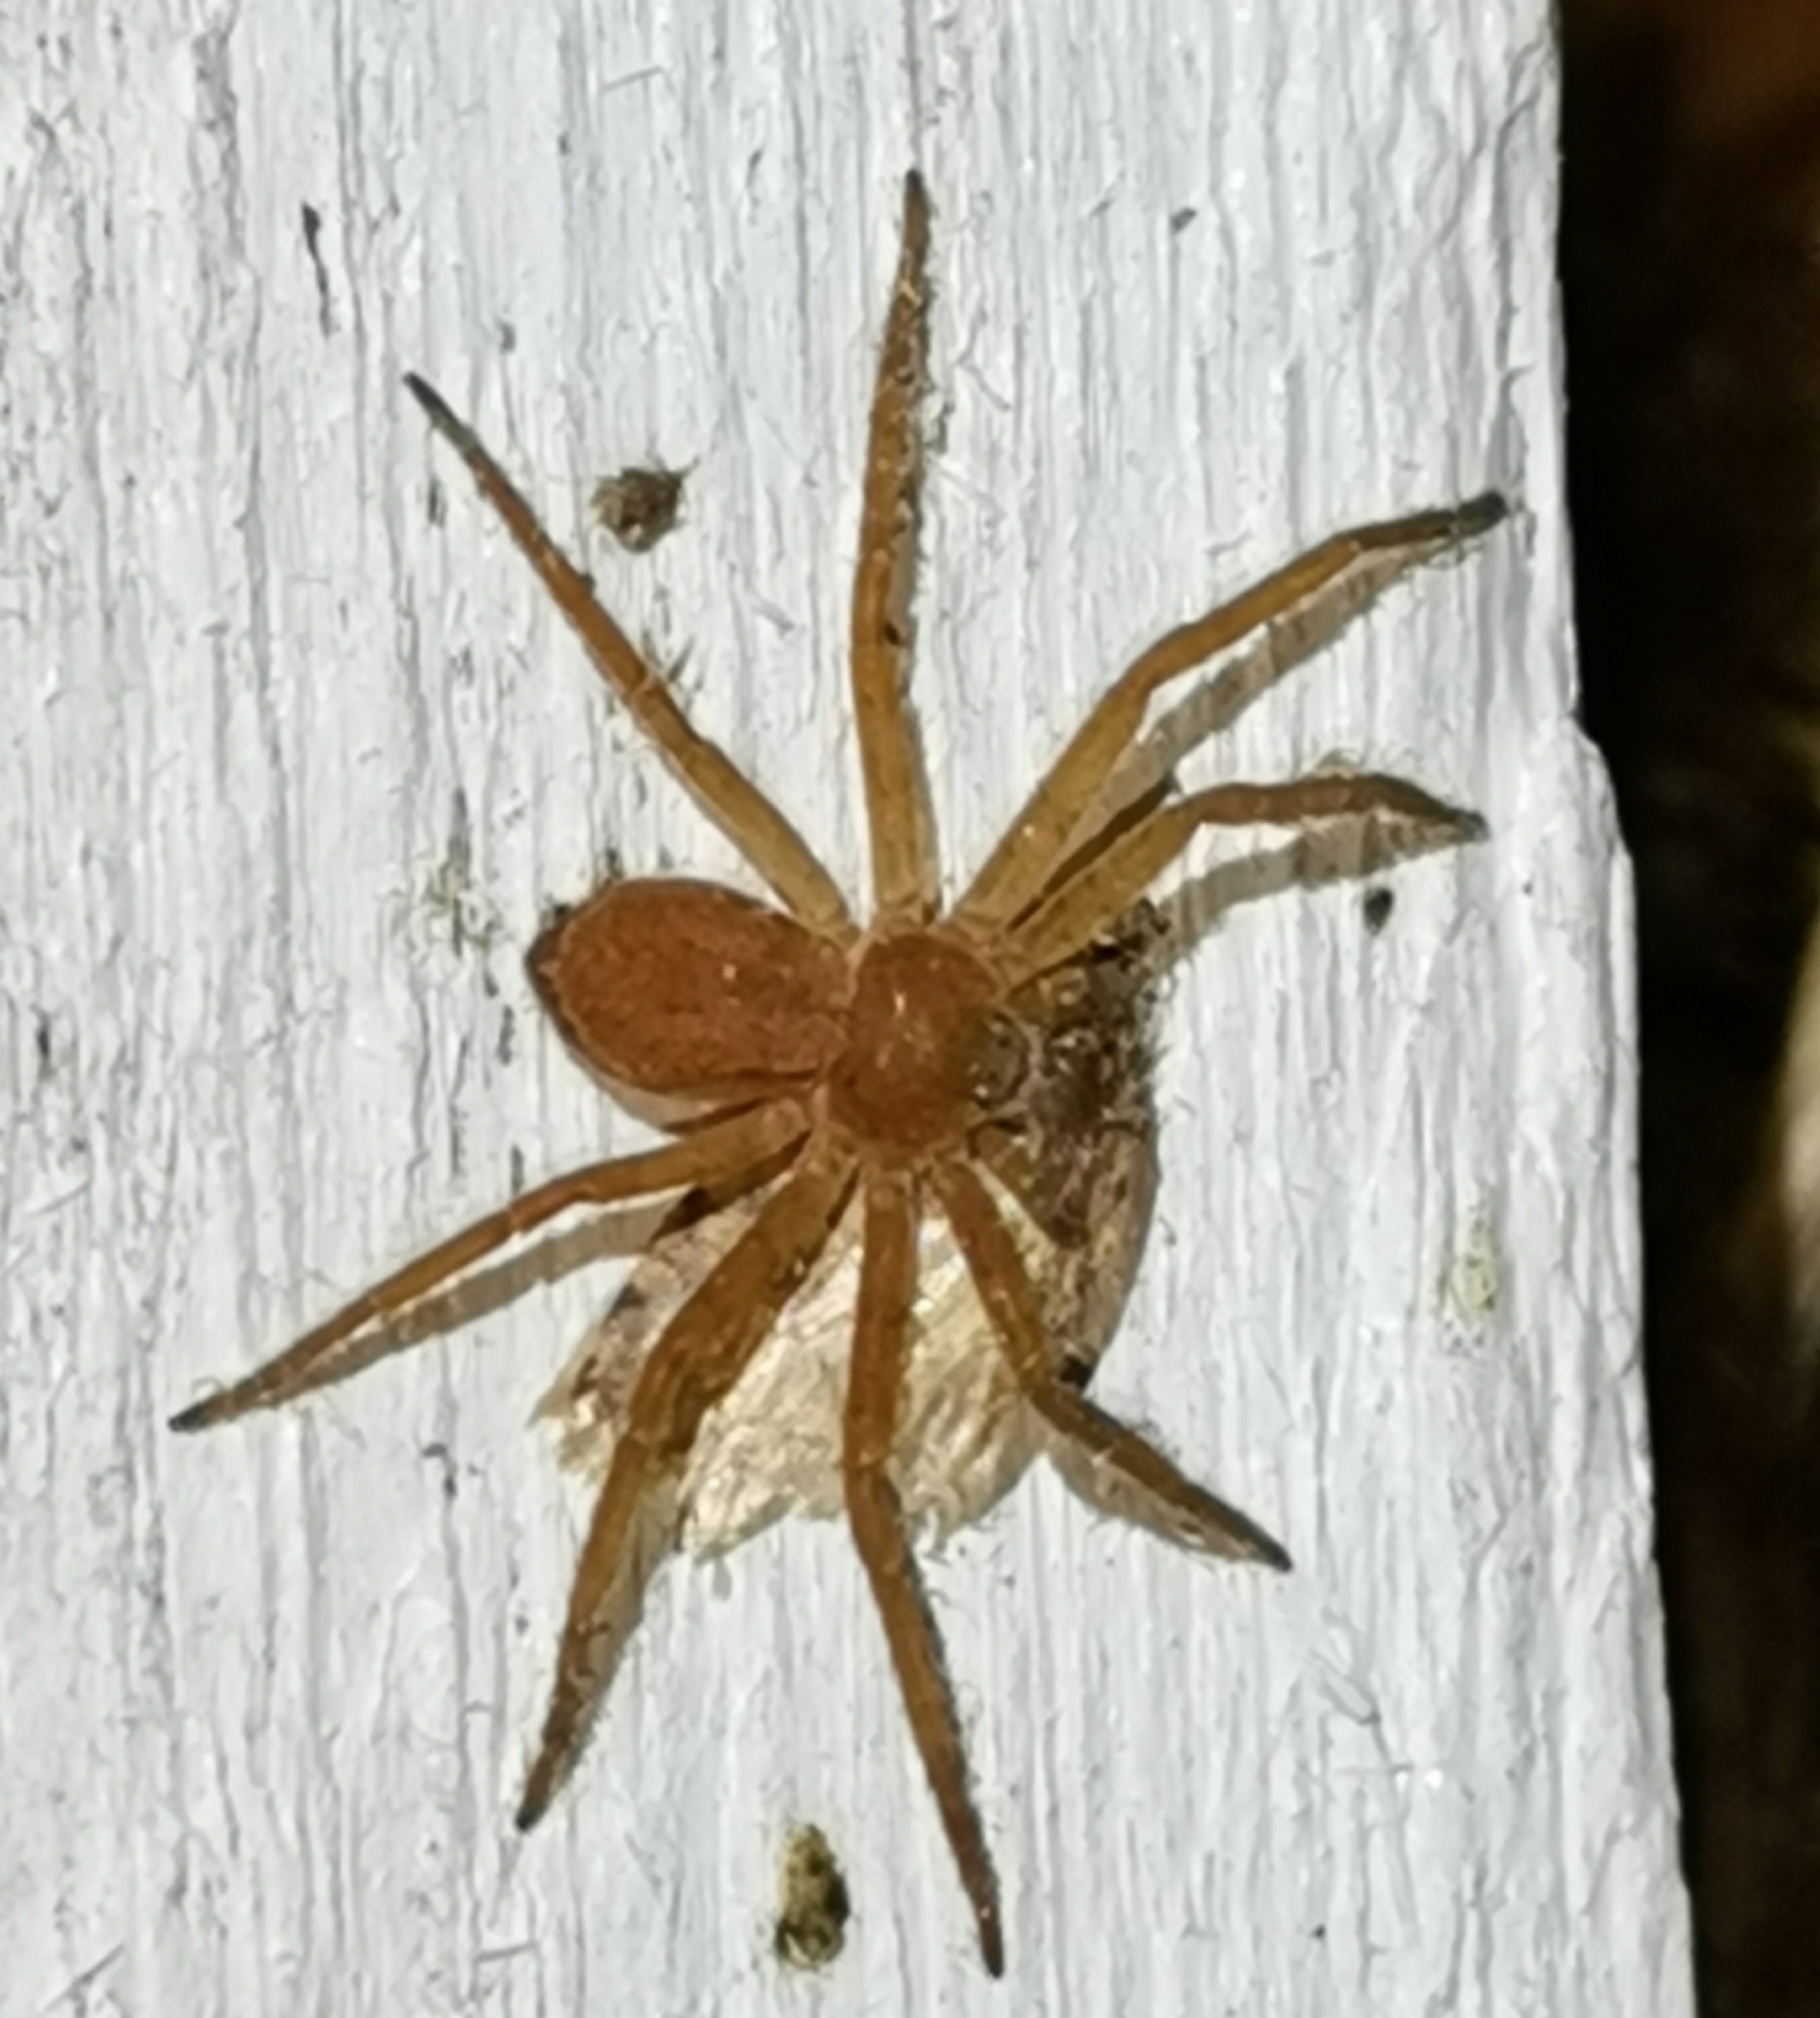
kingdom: Animalia
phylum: Arthropoda
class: Arachnida
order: Araneae
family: Philodromidae
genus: Philodromus
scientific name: Philodromus fuscomarginatus
